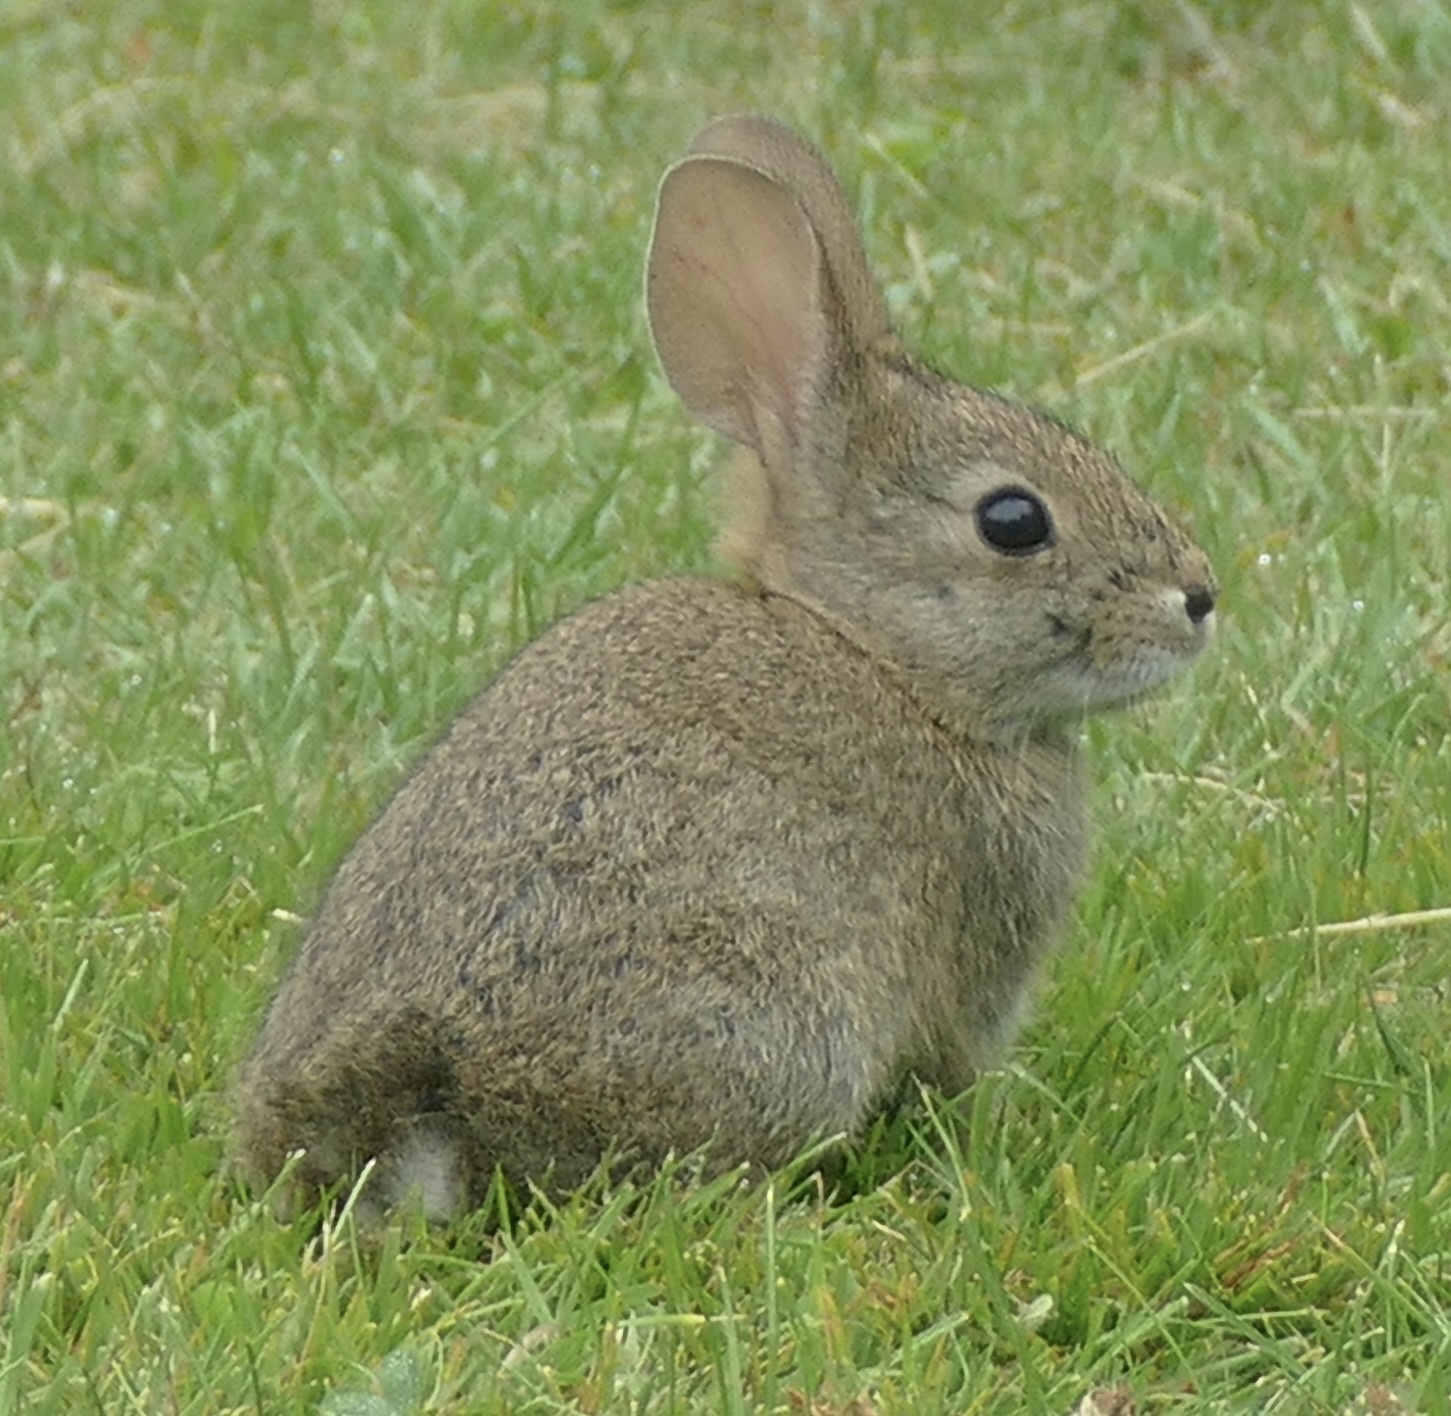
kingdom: Animalia
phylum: Chordata
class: Mammalia
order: Lagomorpha
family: Leporidae
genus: Sylvilagus
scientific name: Sylvilagus bachmani
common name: Brush rabbit
